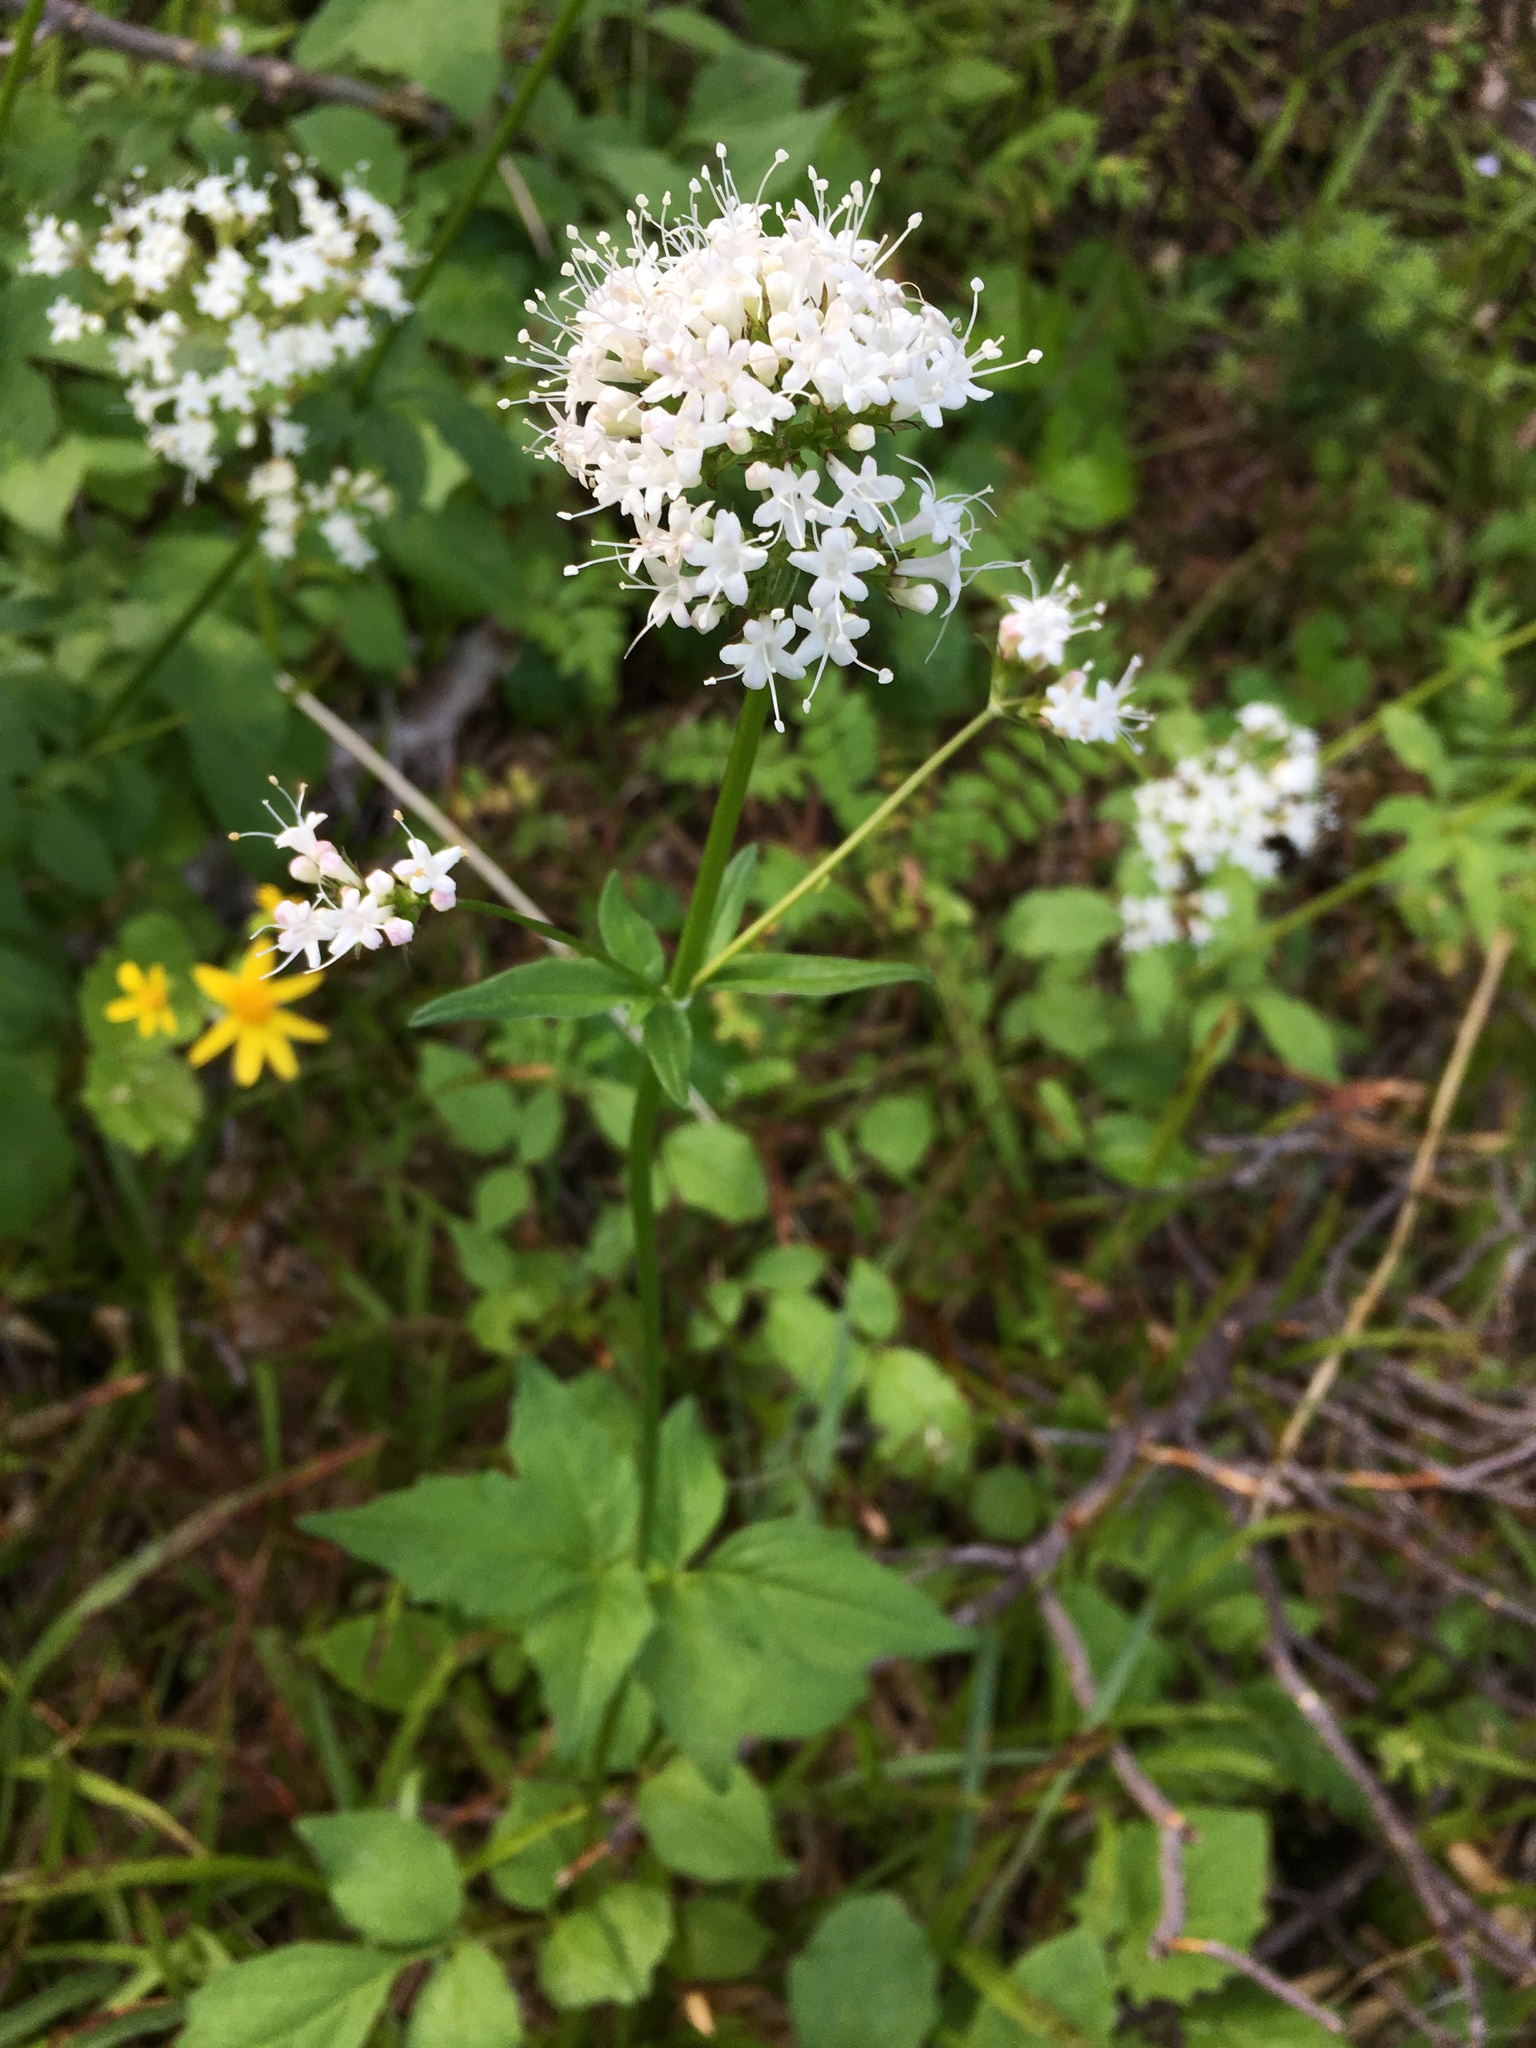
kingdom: Plantae
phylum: Tracheophyta
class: Magnoliopsida
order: Dipsacales
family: Caprifoliaceae
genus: Valeriana
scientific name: Valeriana scouleri
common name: Scouler's valerian
